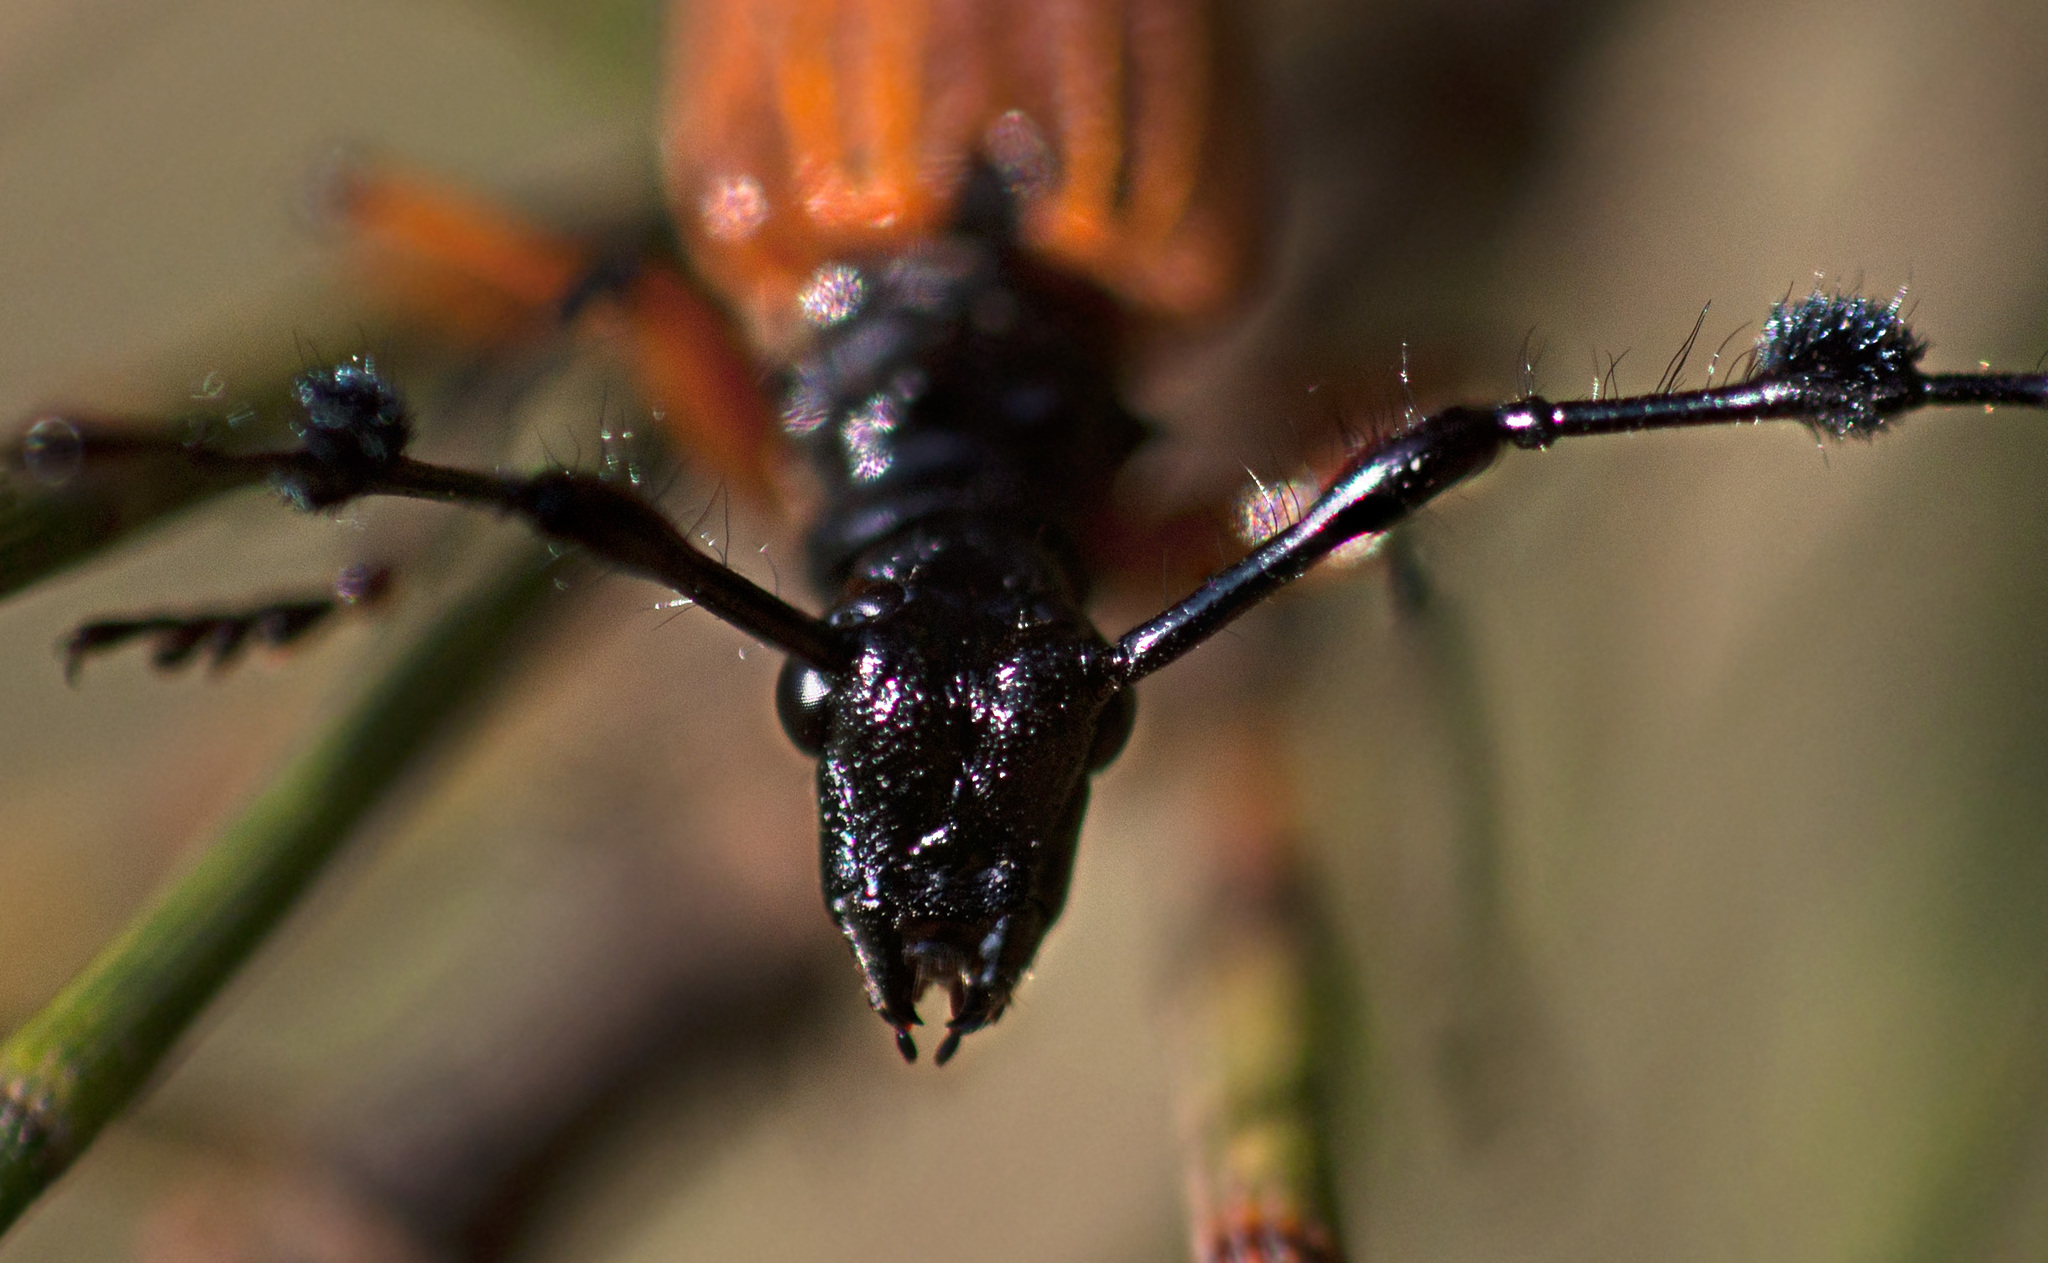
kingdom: Animalia
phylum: Arthropoda
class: Insecta
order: Coleoptera
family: Cerambycidae
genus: Tritocosmia
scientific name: Tritocosmia atricilla
